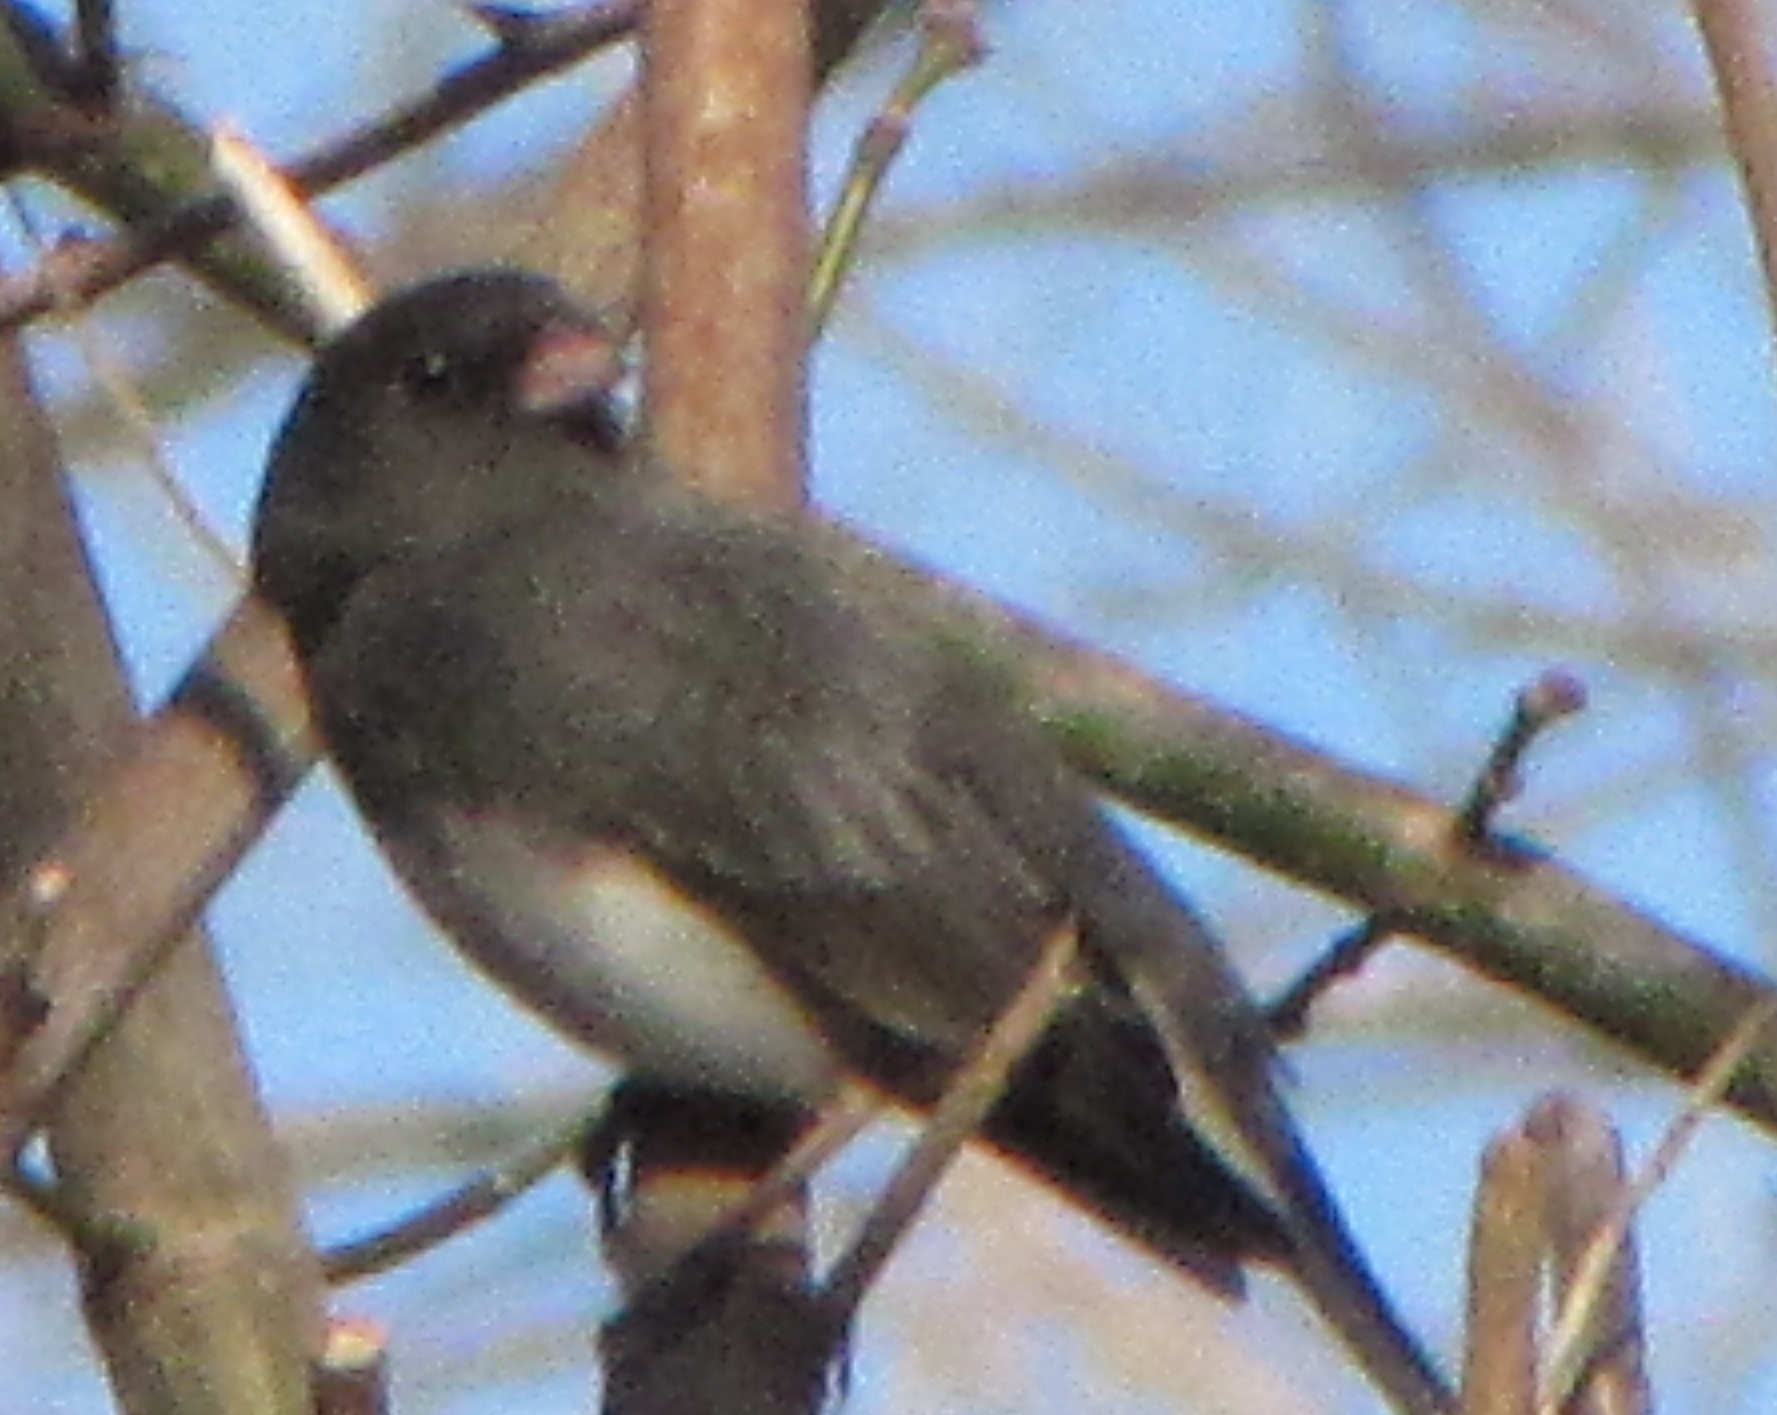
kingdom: Animalia
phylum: Chordata
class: Aves
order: Passeriformes
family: Passerellidae
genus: Junco
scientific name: Junco hyemalis
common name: Dark-eyed junco
